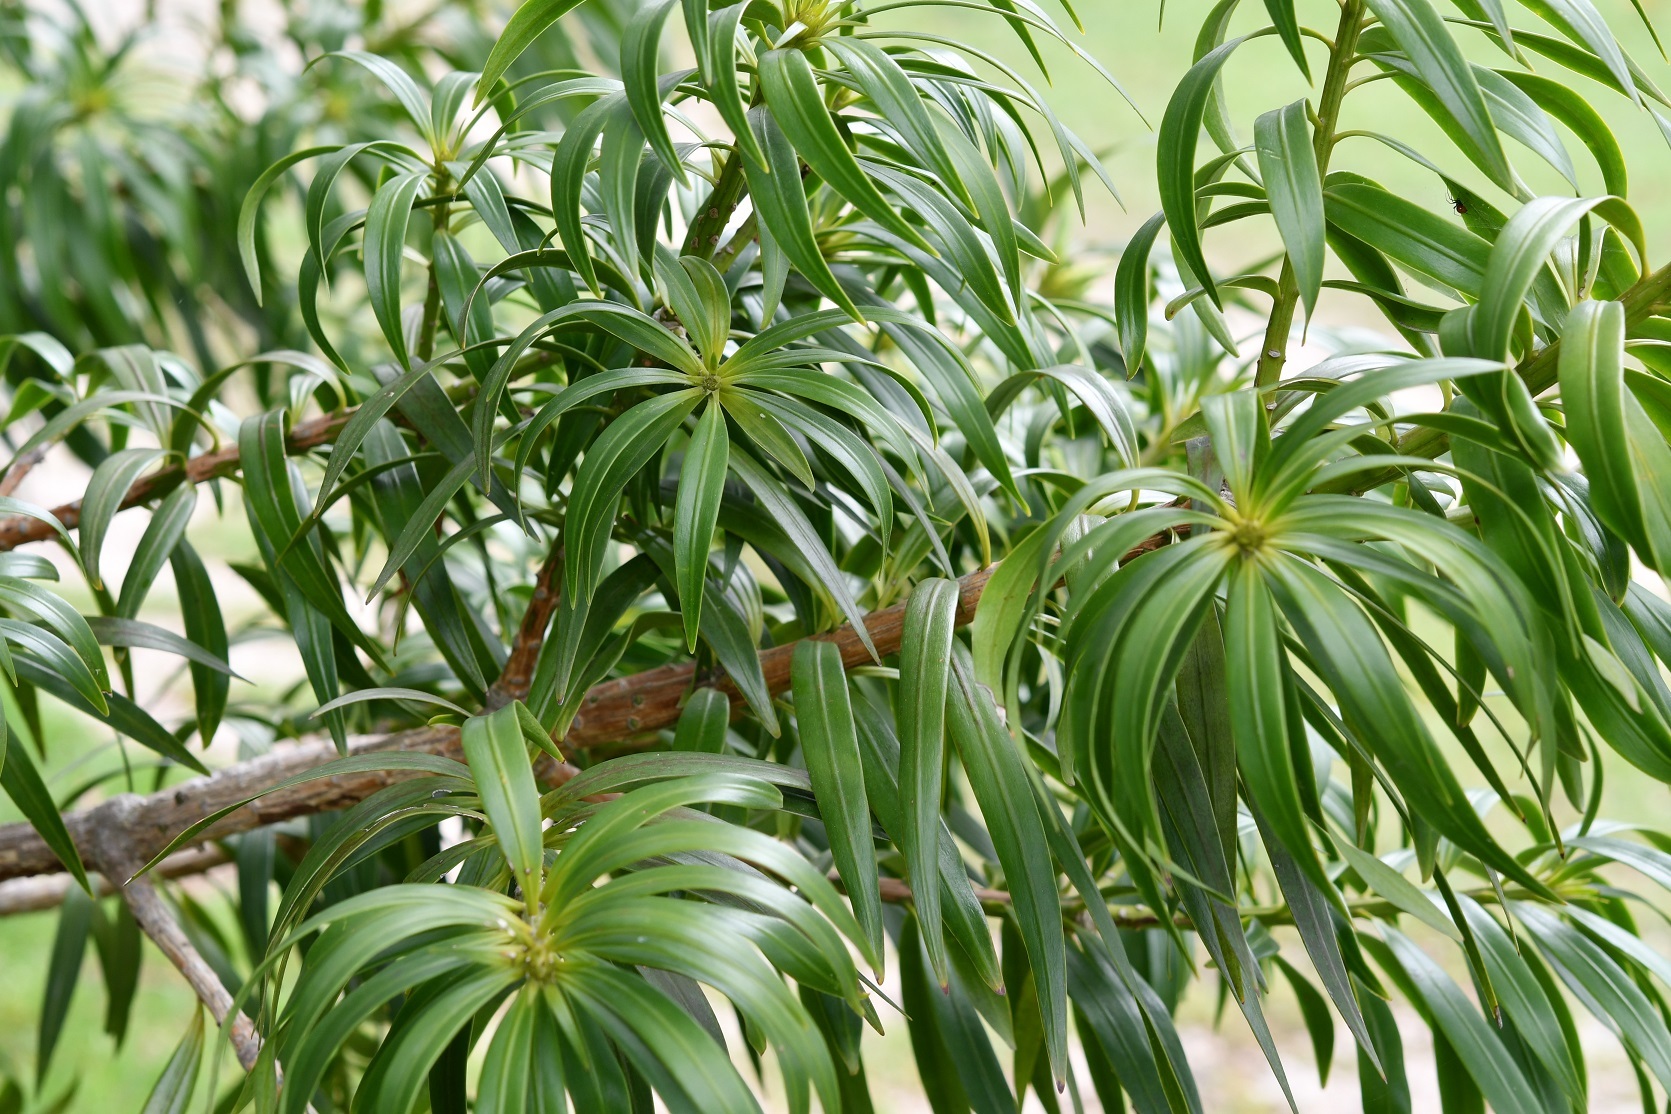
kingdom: Plantae
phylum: Tracheophyta
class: Pinopsida
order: Pinales
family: Podocarpaceae
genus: Podocarpus
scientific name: Podocarpus matudae
